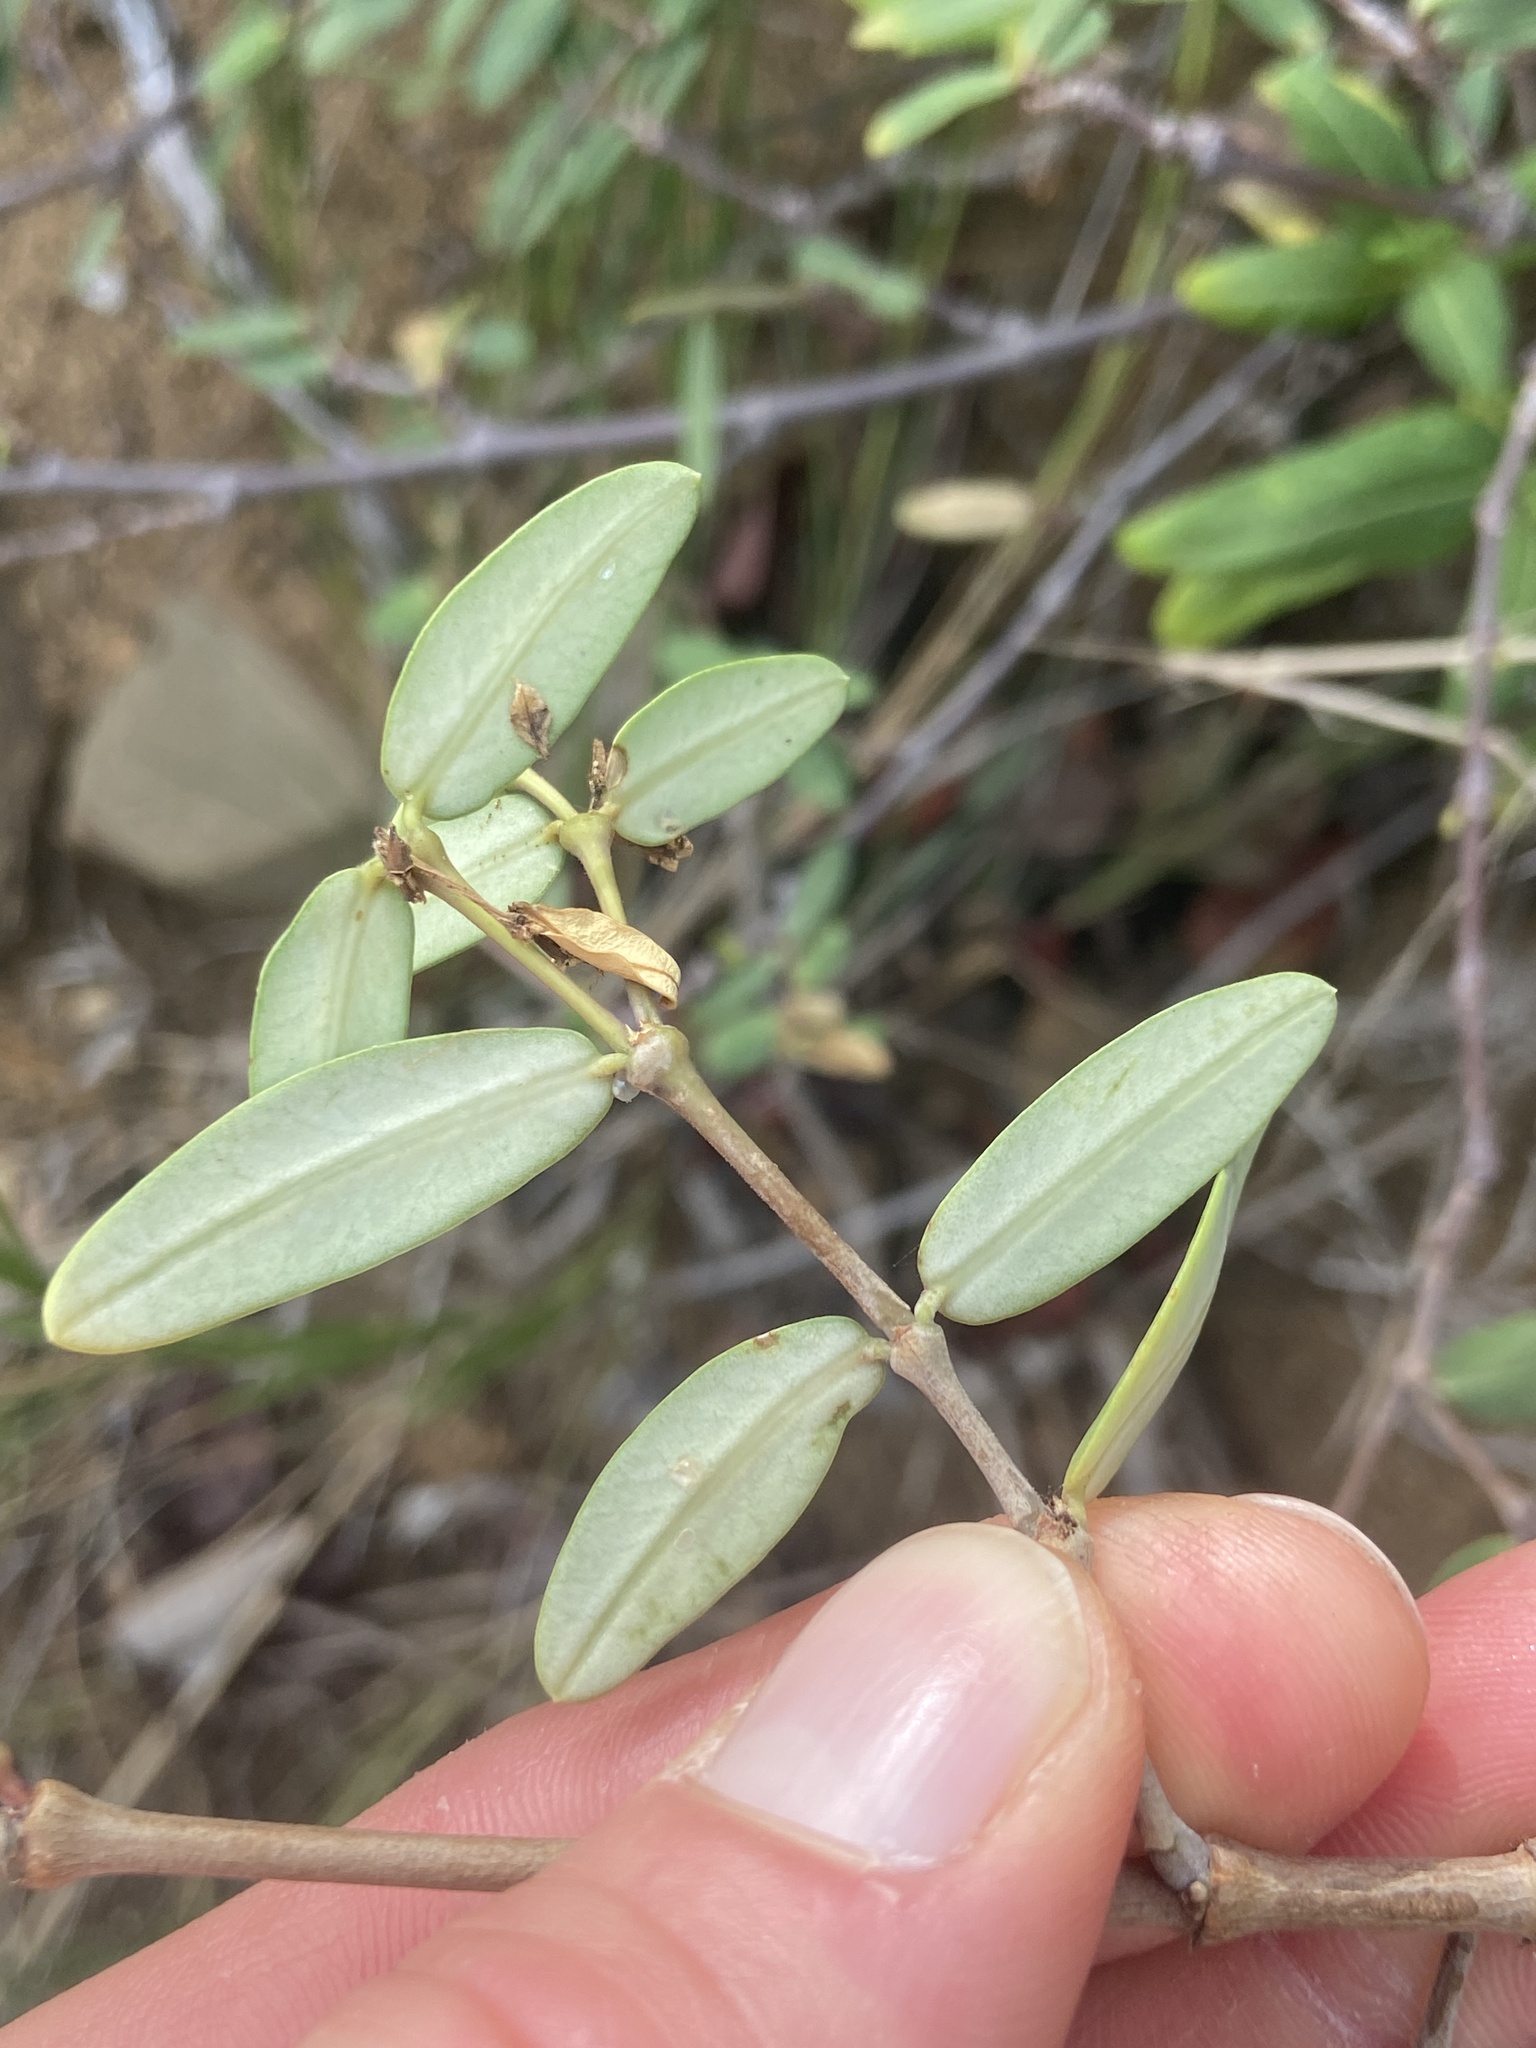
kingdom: Plantae
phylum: Tracheophyta
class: Magnoliopsida
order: Malpighiales
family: Euphorbiaceae
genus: Euphorbia
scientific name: Euphorbia articulata
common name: Jointed sandmat
